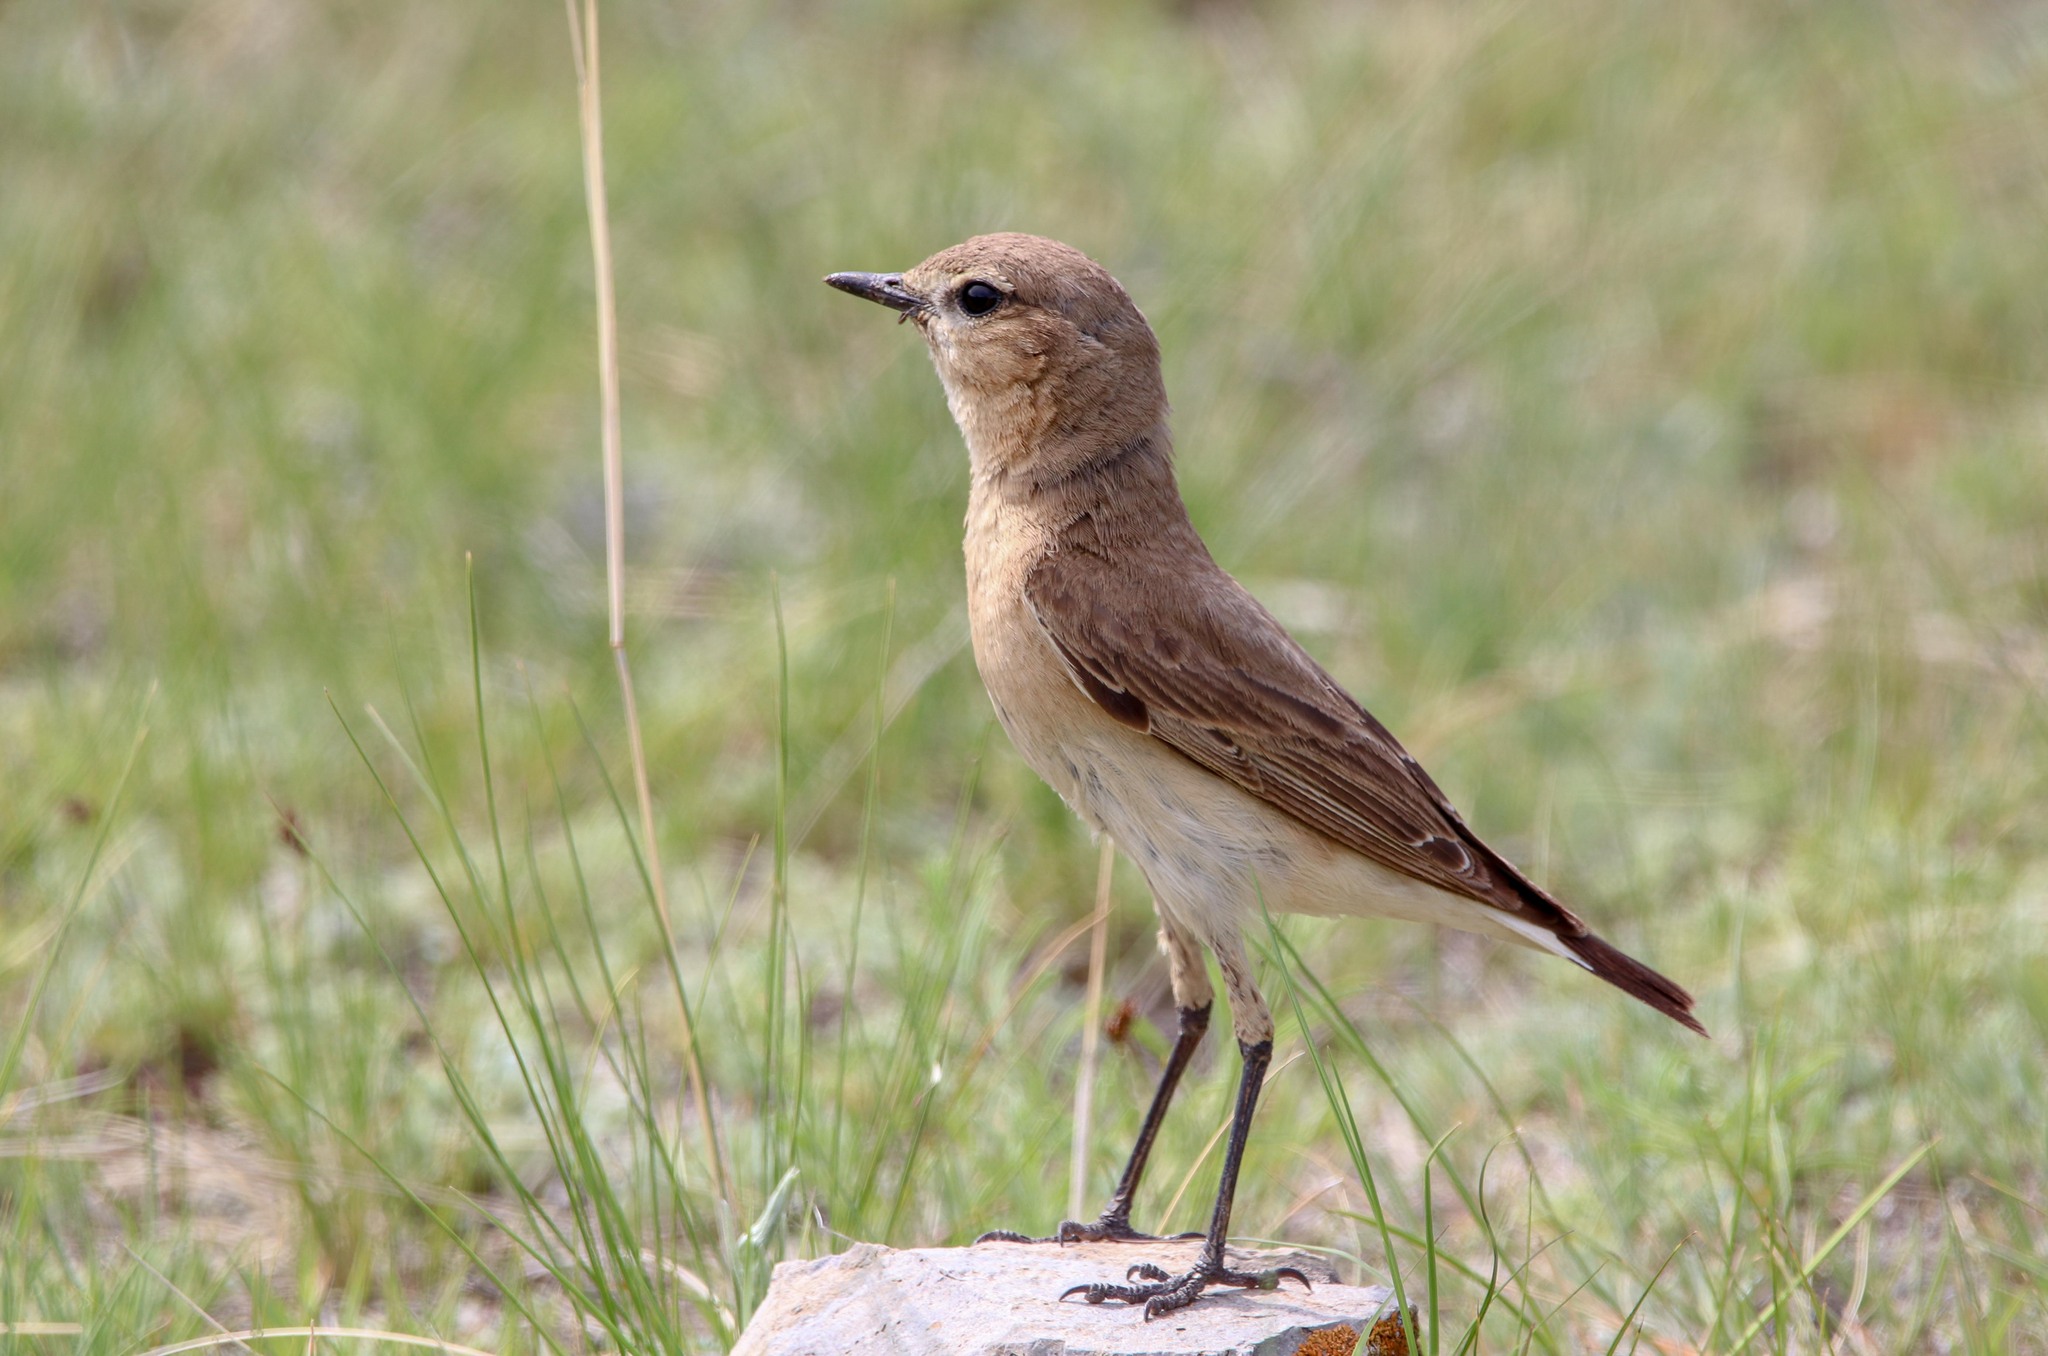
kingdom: Animalia
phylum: Chordata
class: Aves
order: Passeriformes
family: Muscicapidae
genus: Oenanthe
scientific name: Oenanthe isabellina
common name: Isabelline wheatear
